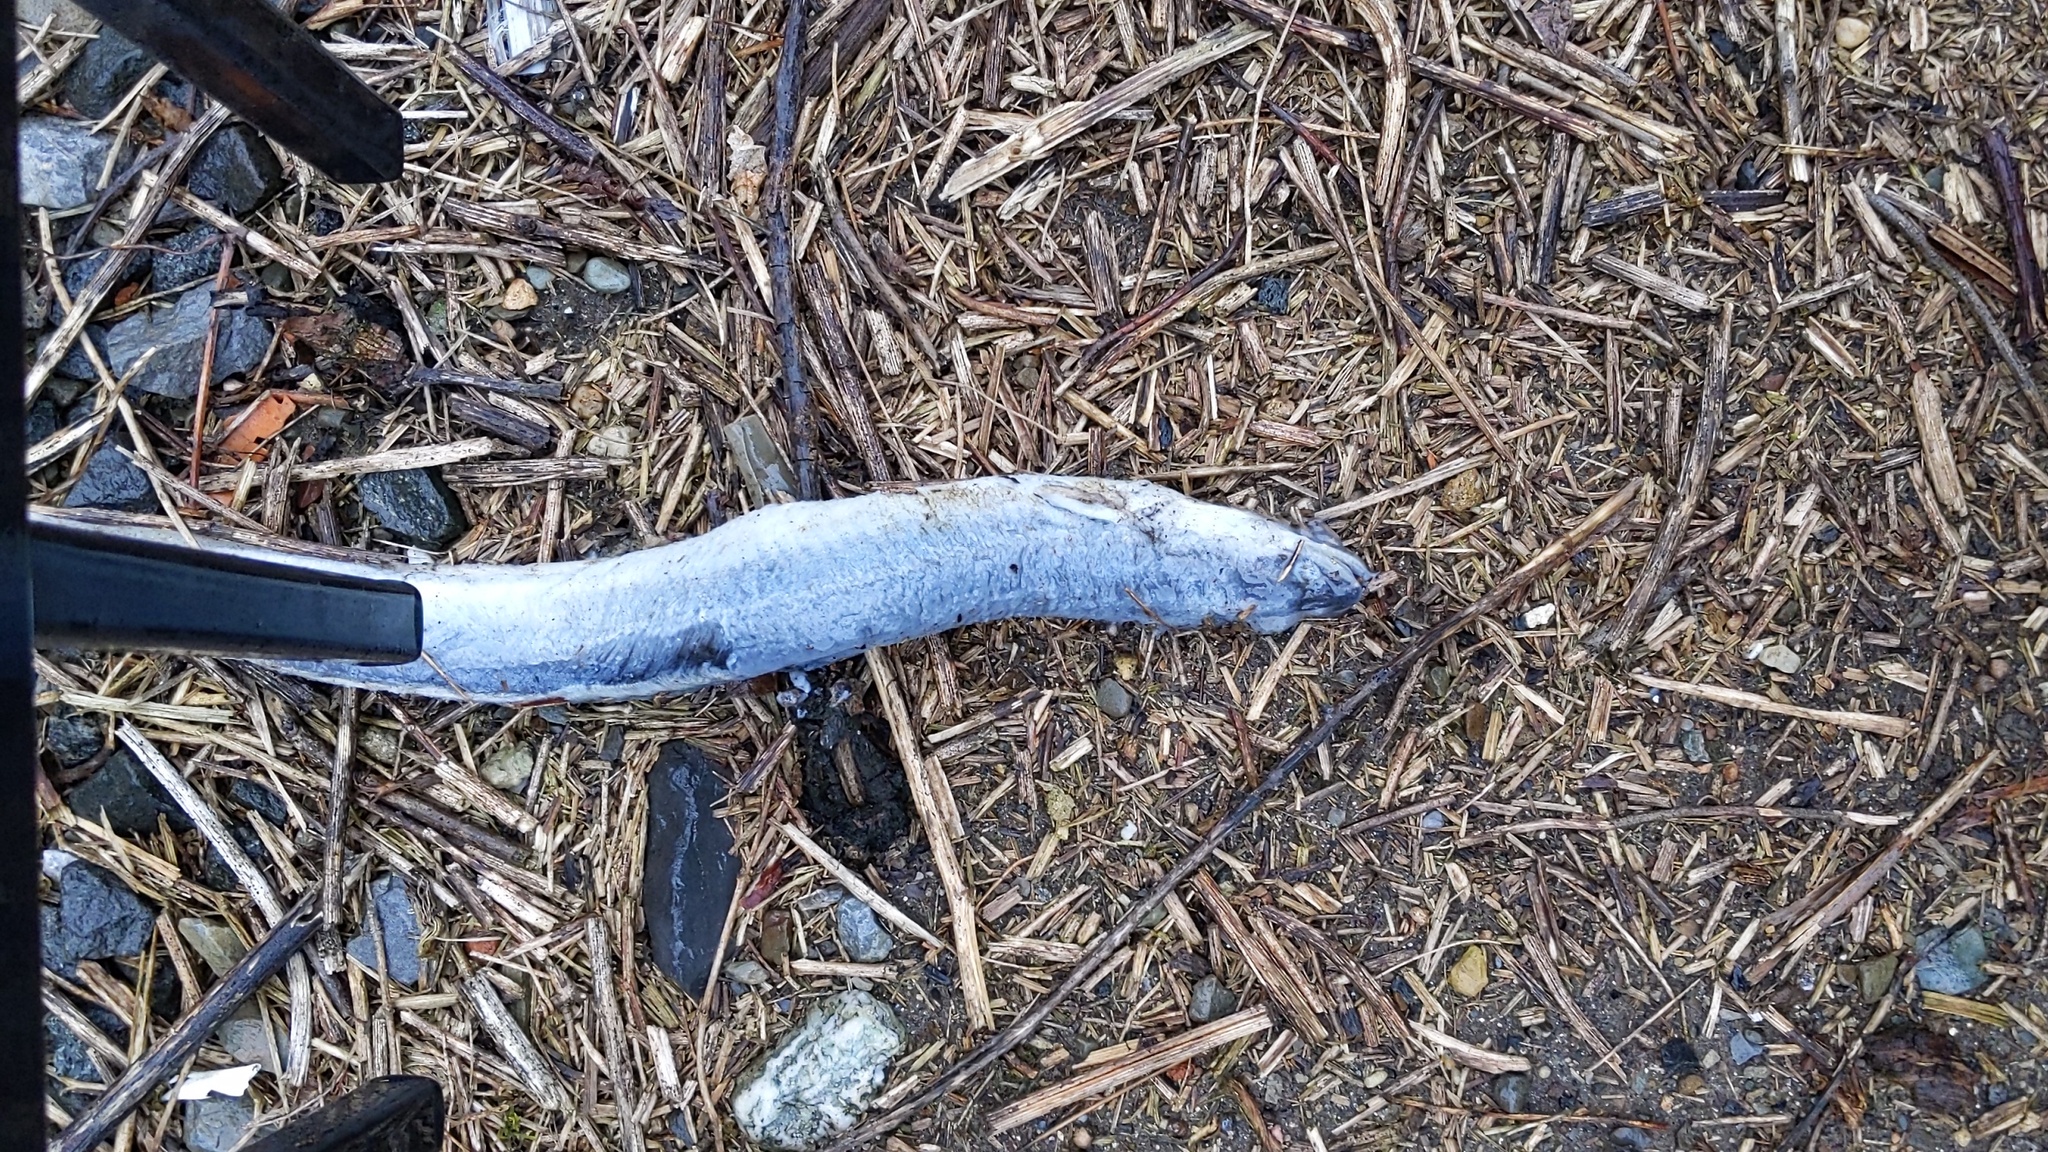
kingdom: Animalia
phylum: Chordata
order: Anguilliformes
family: Anguillidae
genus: Anguilla
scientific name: Anguilla rostrata
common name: American eel
